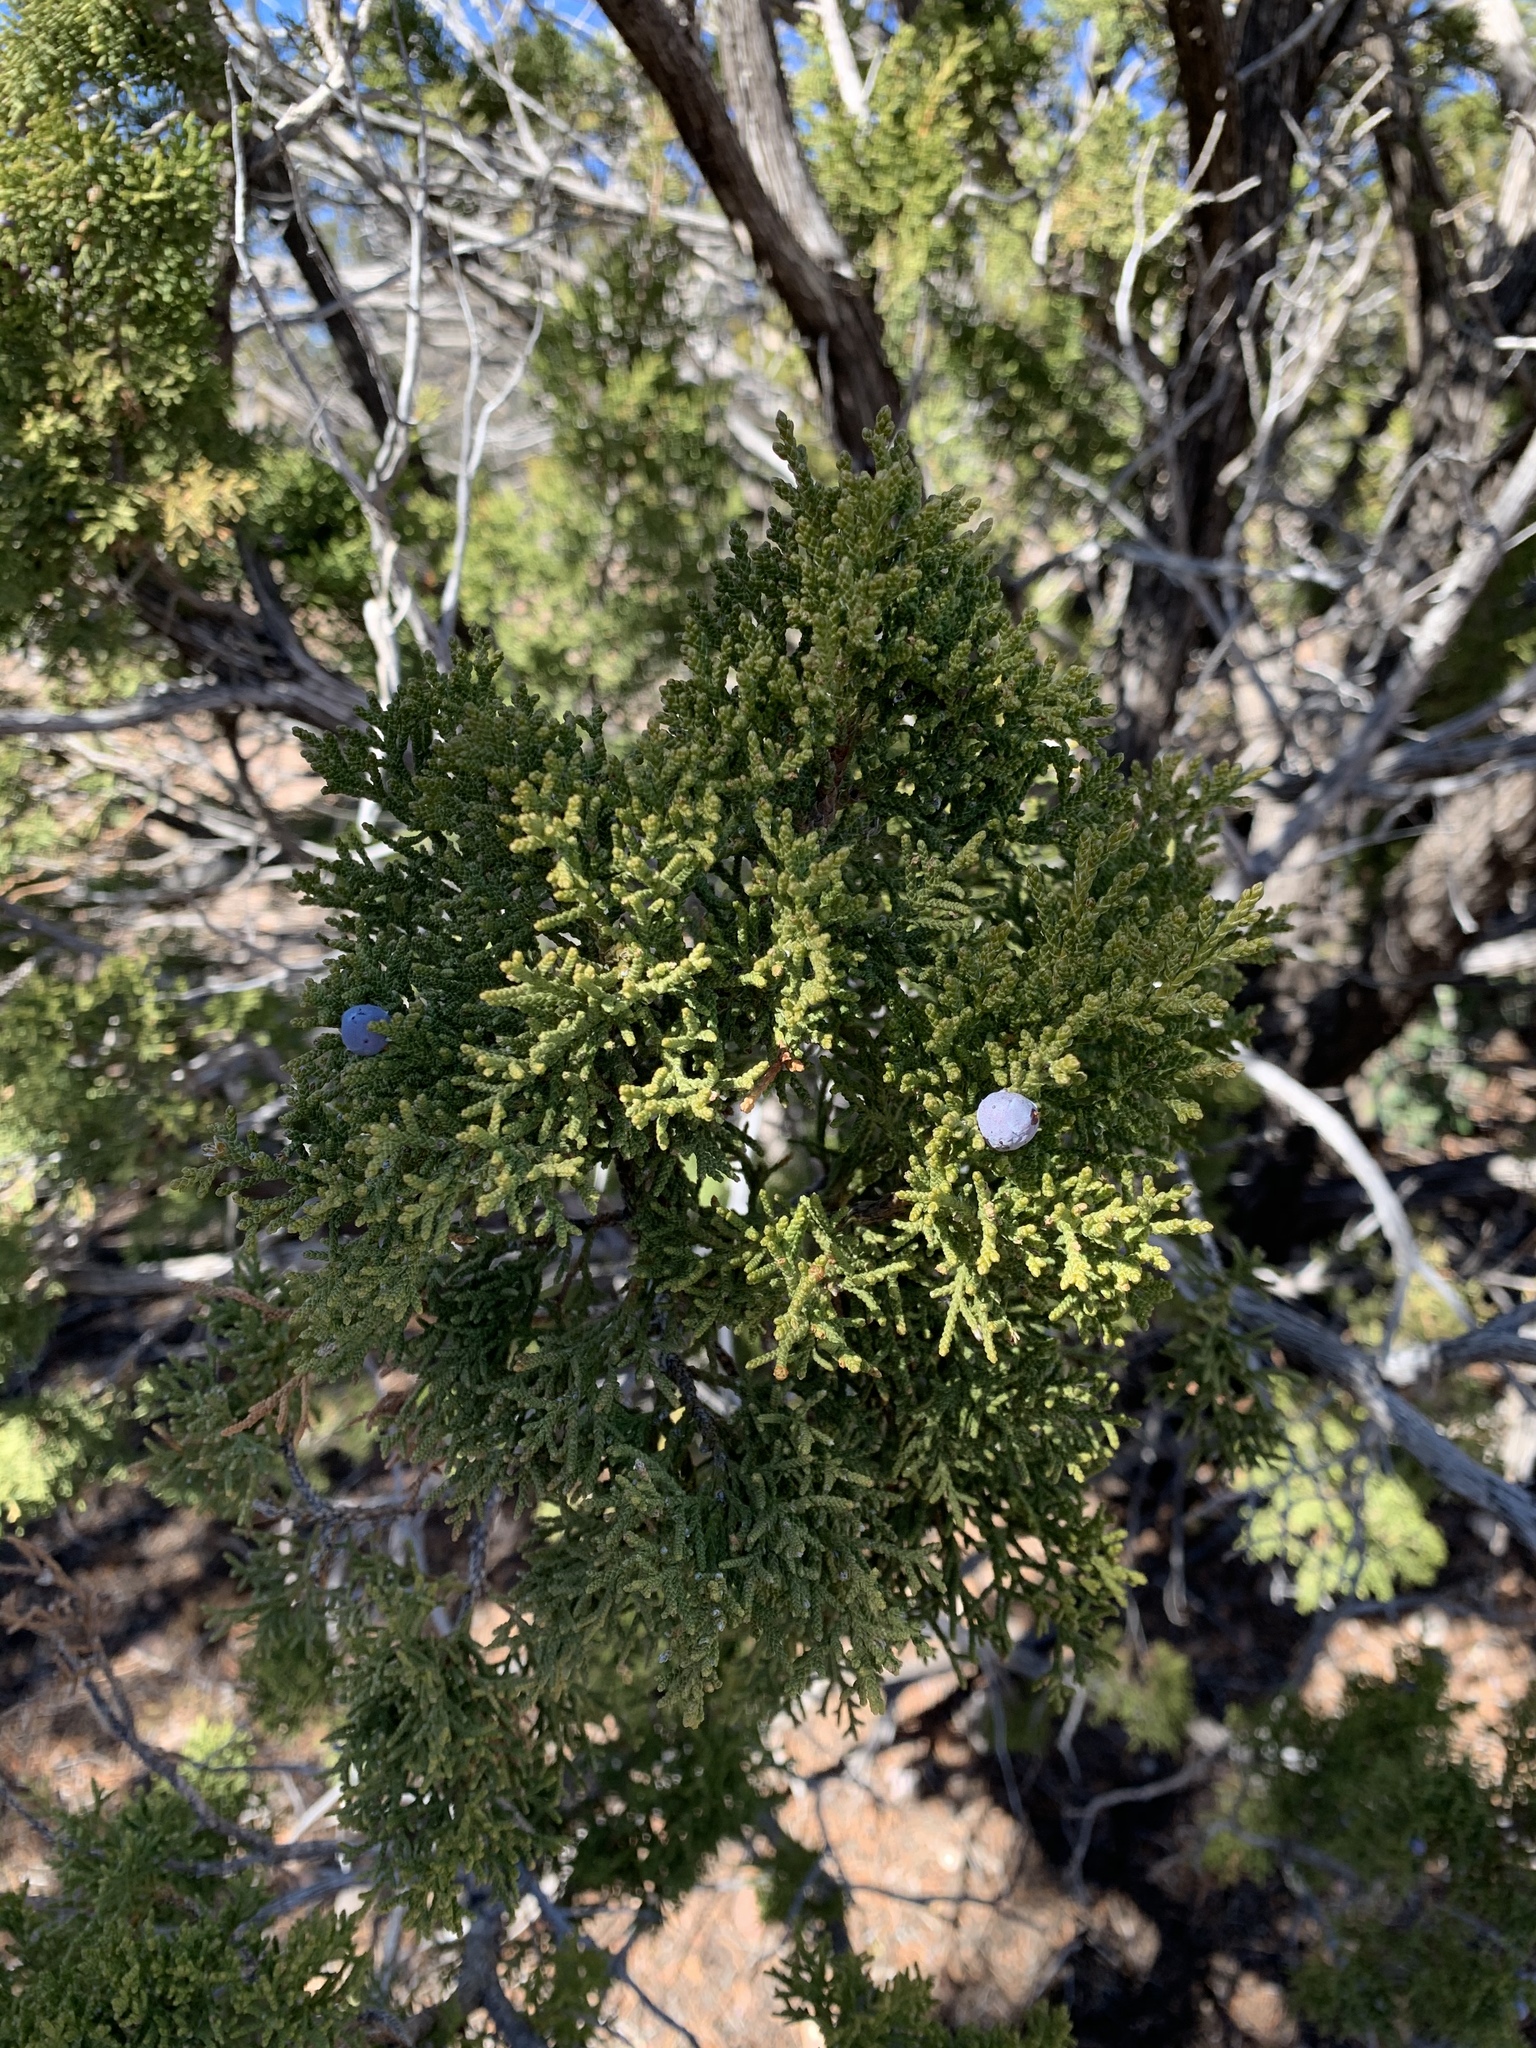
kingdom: Plantae
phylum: Tracheophyta
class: Pinopsida
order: Pinales
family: Cupressaceae
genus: Juniperus
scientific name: Juniperus monosperma
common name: One-seed juniper
